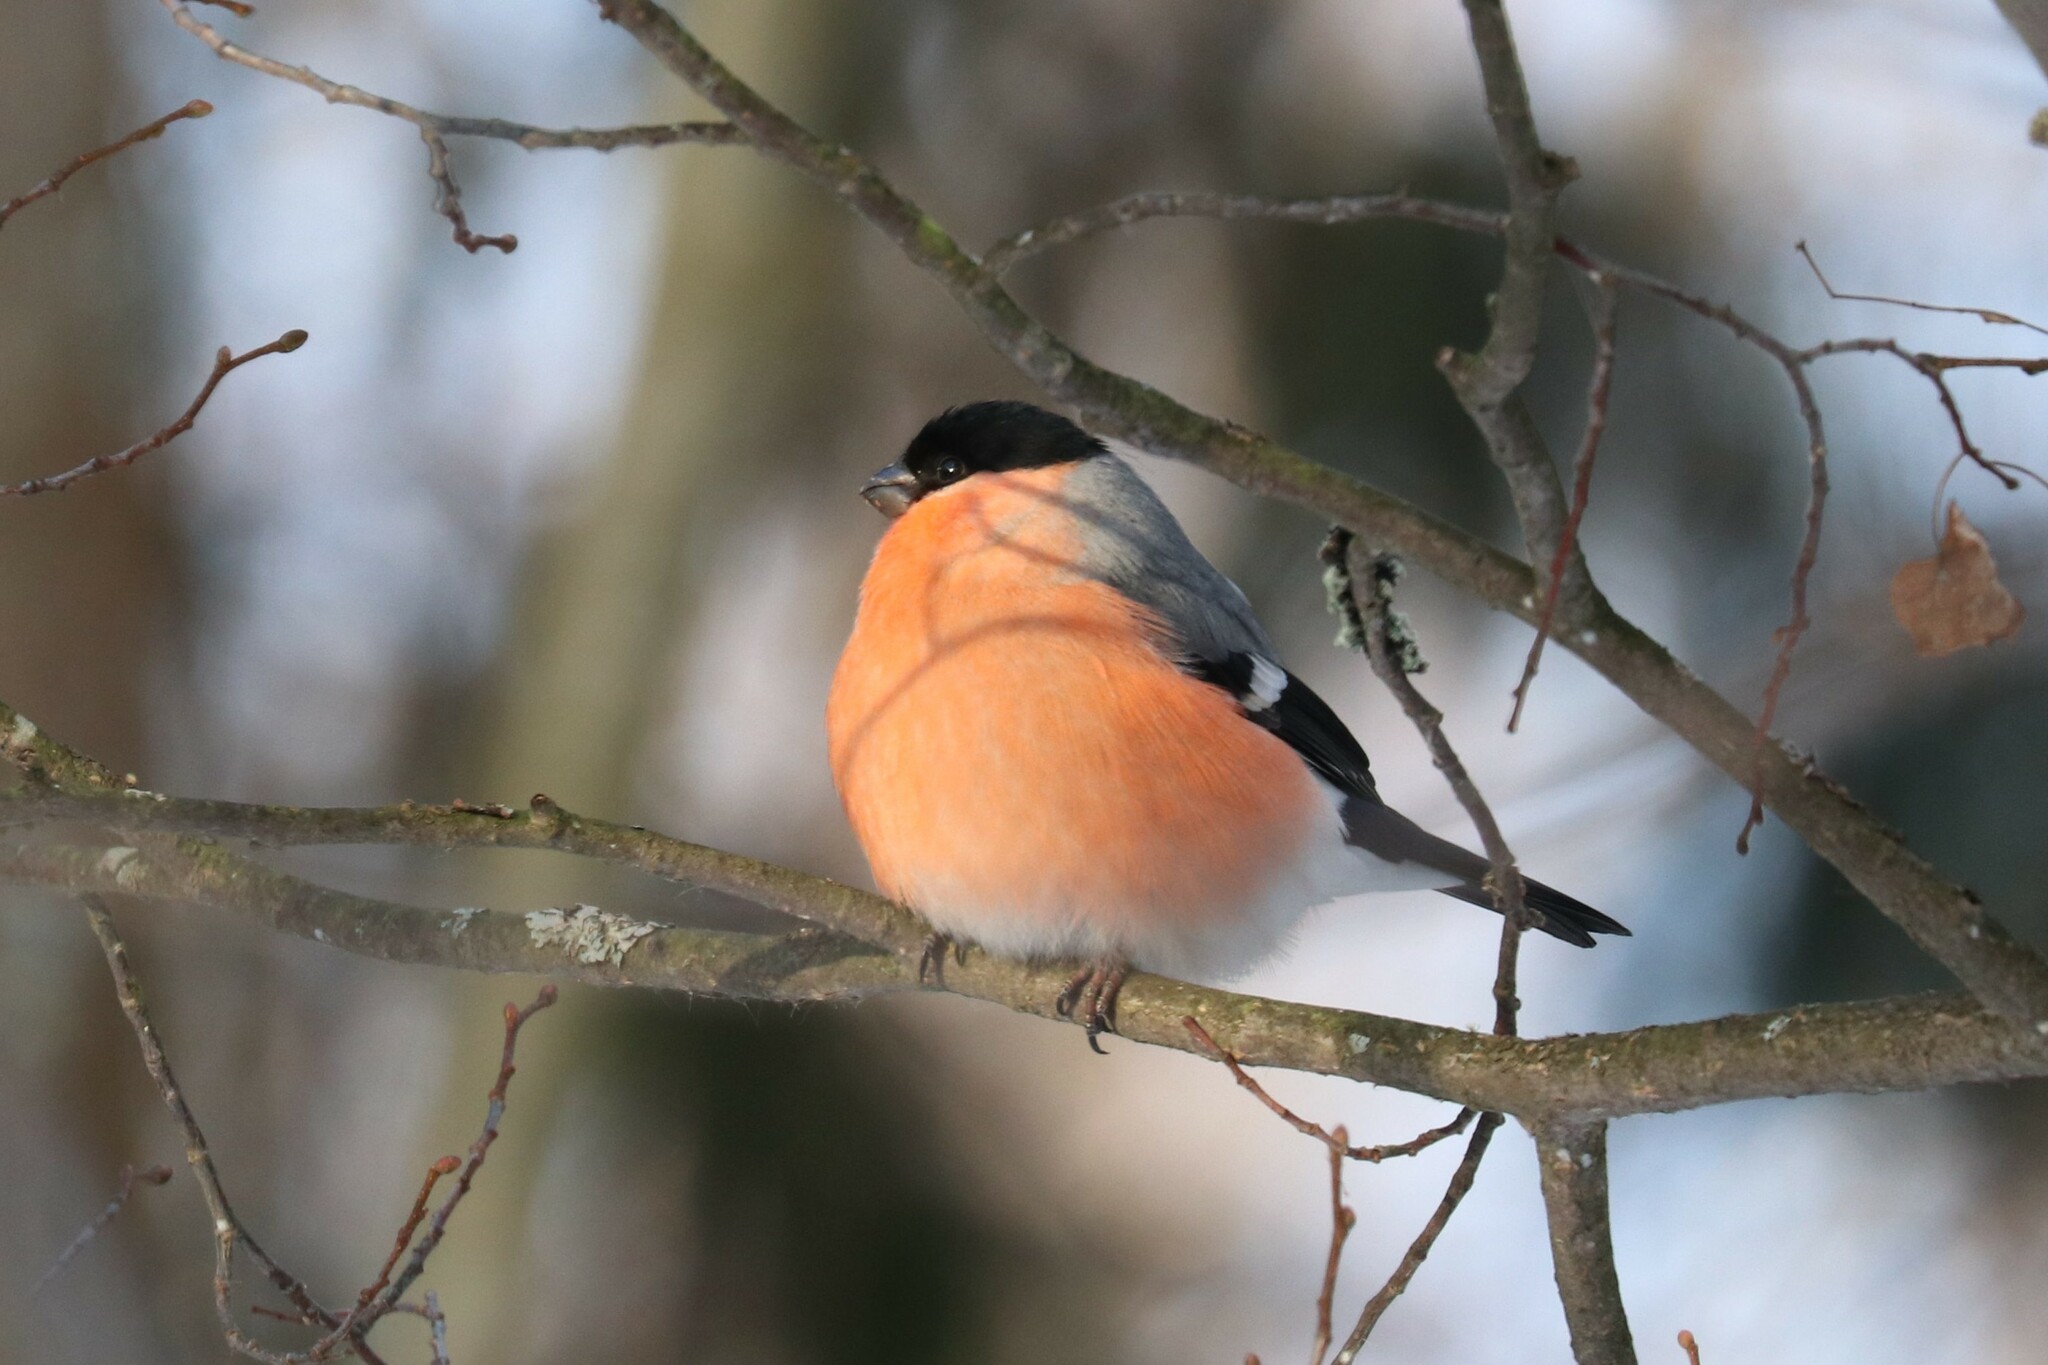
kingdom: Animalia
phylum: Chordata
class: Aves
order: Passeriformes
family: Fringillidae
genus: Pyrrhula
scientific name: Pyrrhula pyrrhula
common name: Eurasian bullfinch
